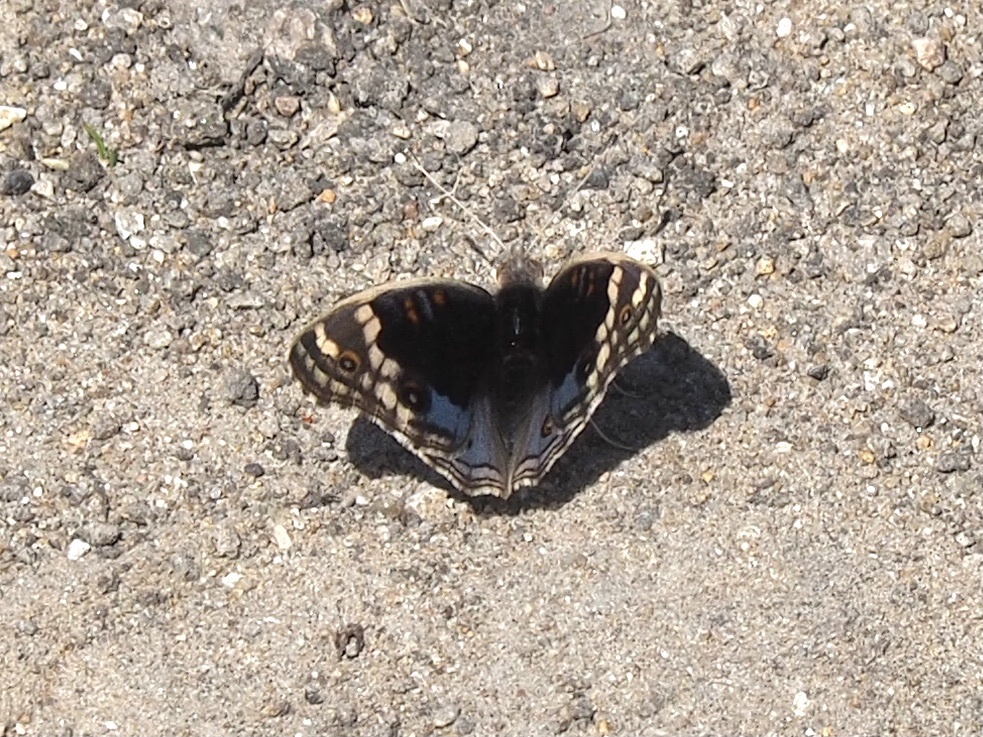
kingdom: Animalia
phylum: Arthropoda
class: Insecta
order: Lepidoptera
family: Nymphalidae
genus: Junonia
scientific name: Junonia orithya
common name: Blue pansy
